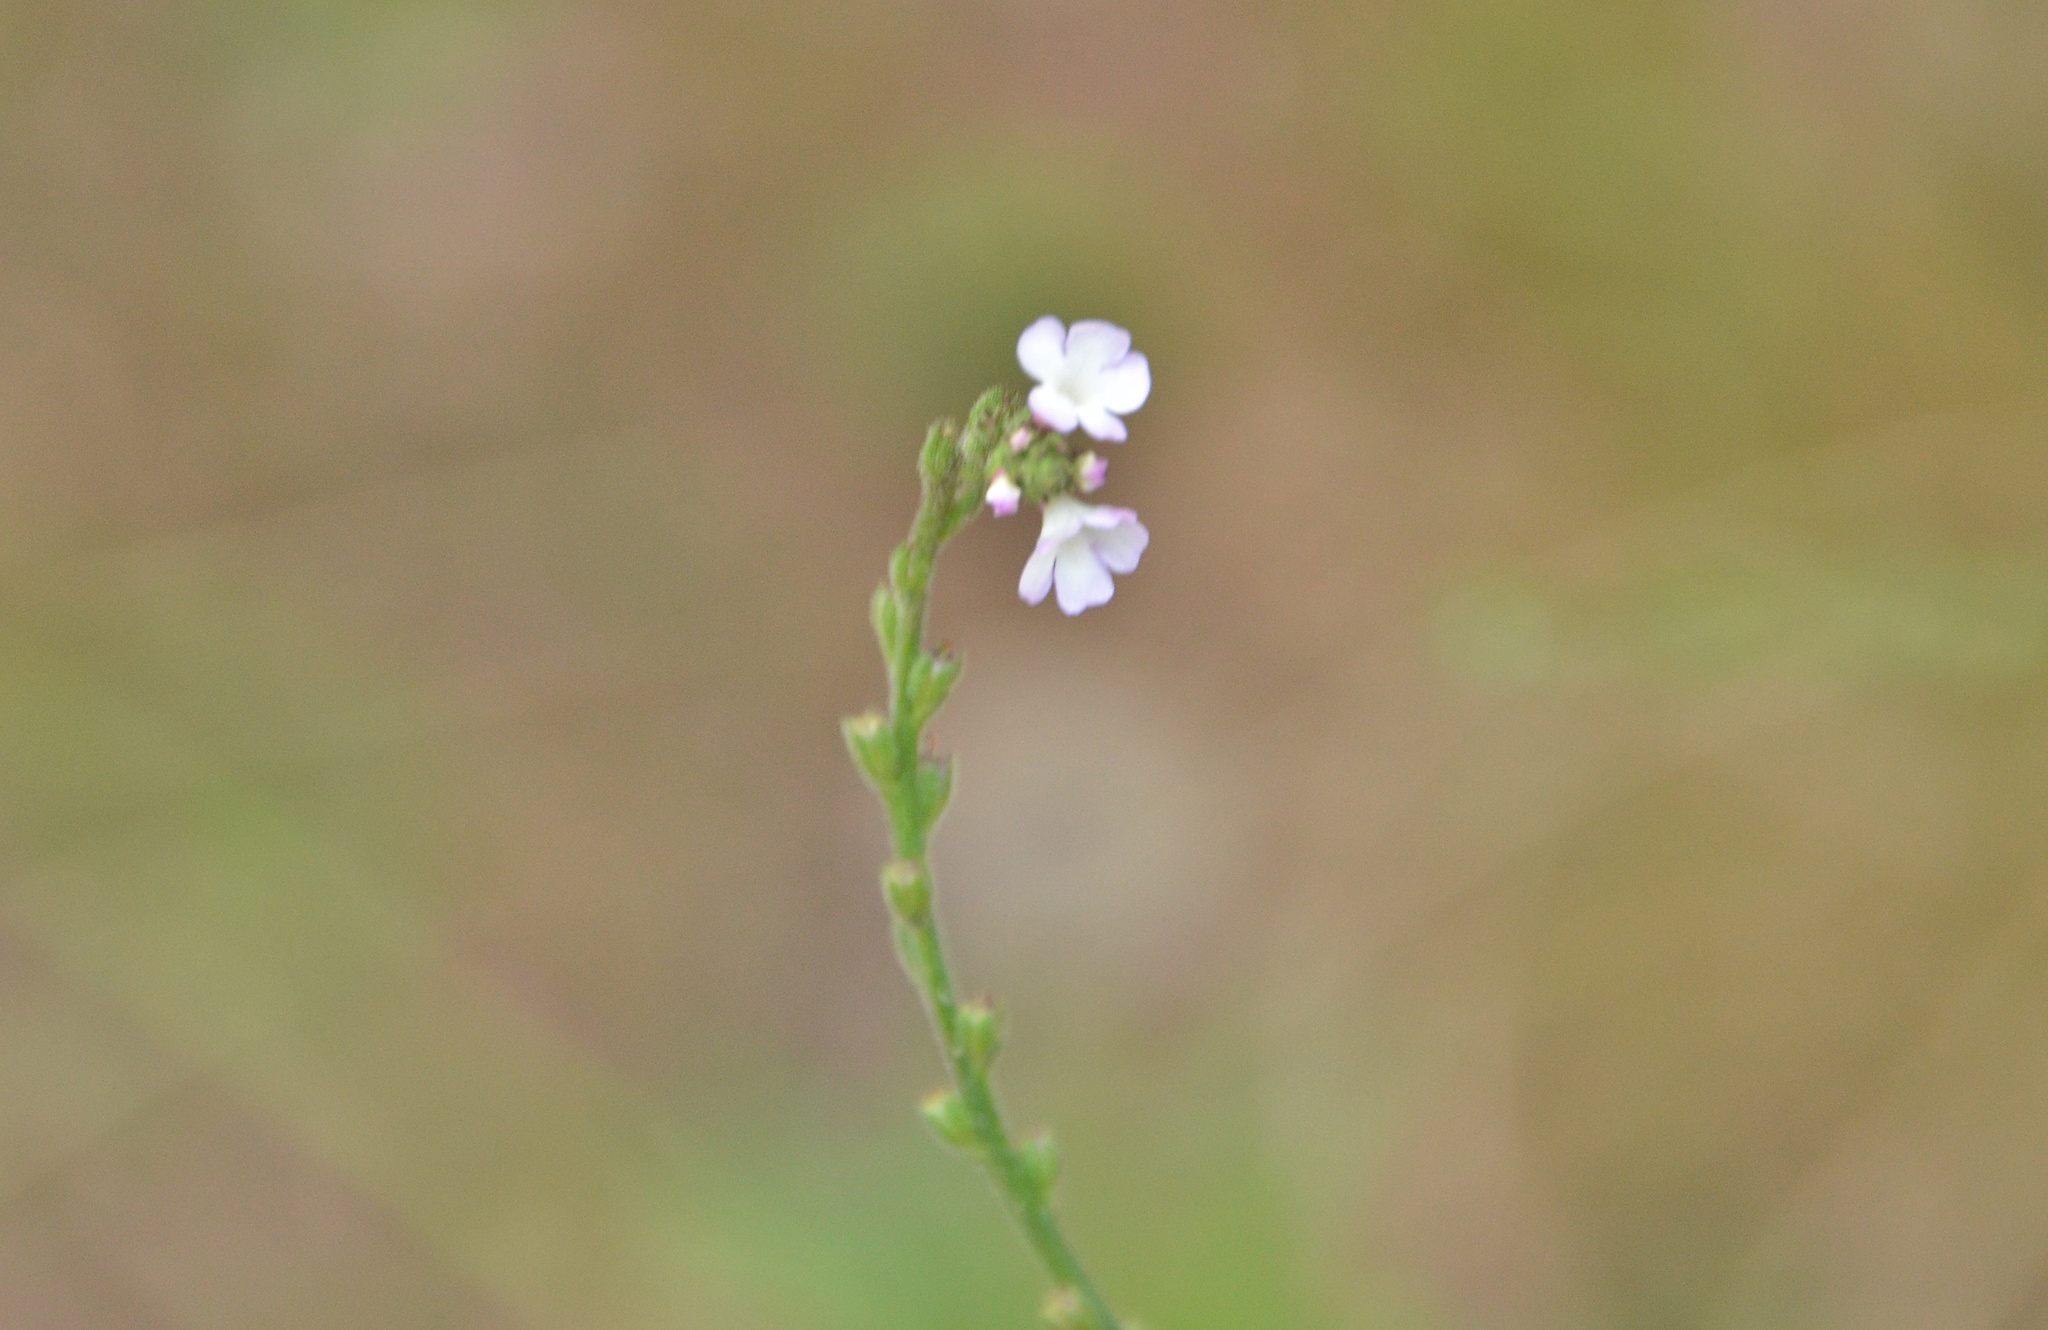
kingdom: Plantae
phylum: Tracheophyta
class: Magnoliopsida
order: Lamiales
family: Verbenaceae
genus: Verbena
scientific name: Verbena officinalis
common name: Vervain
